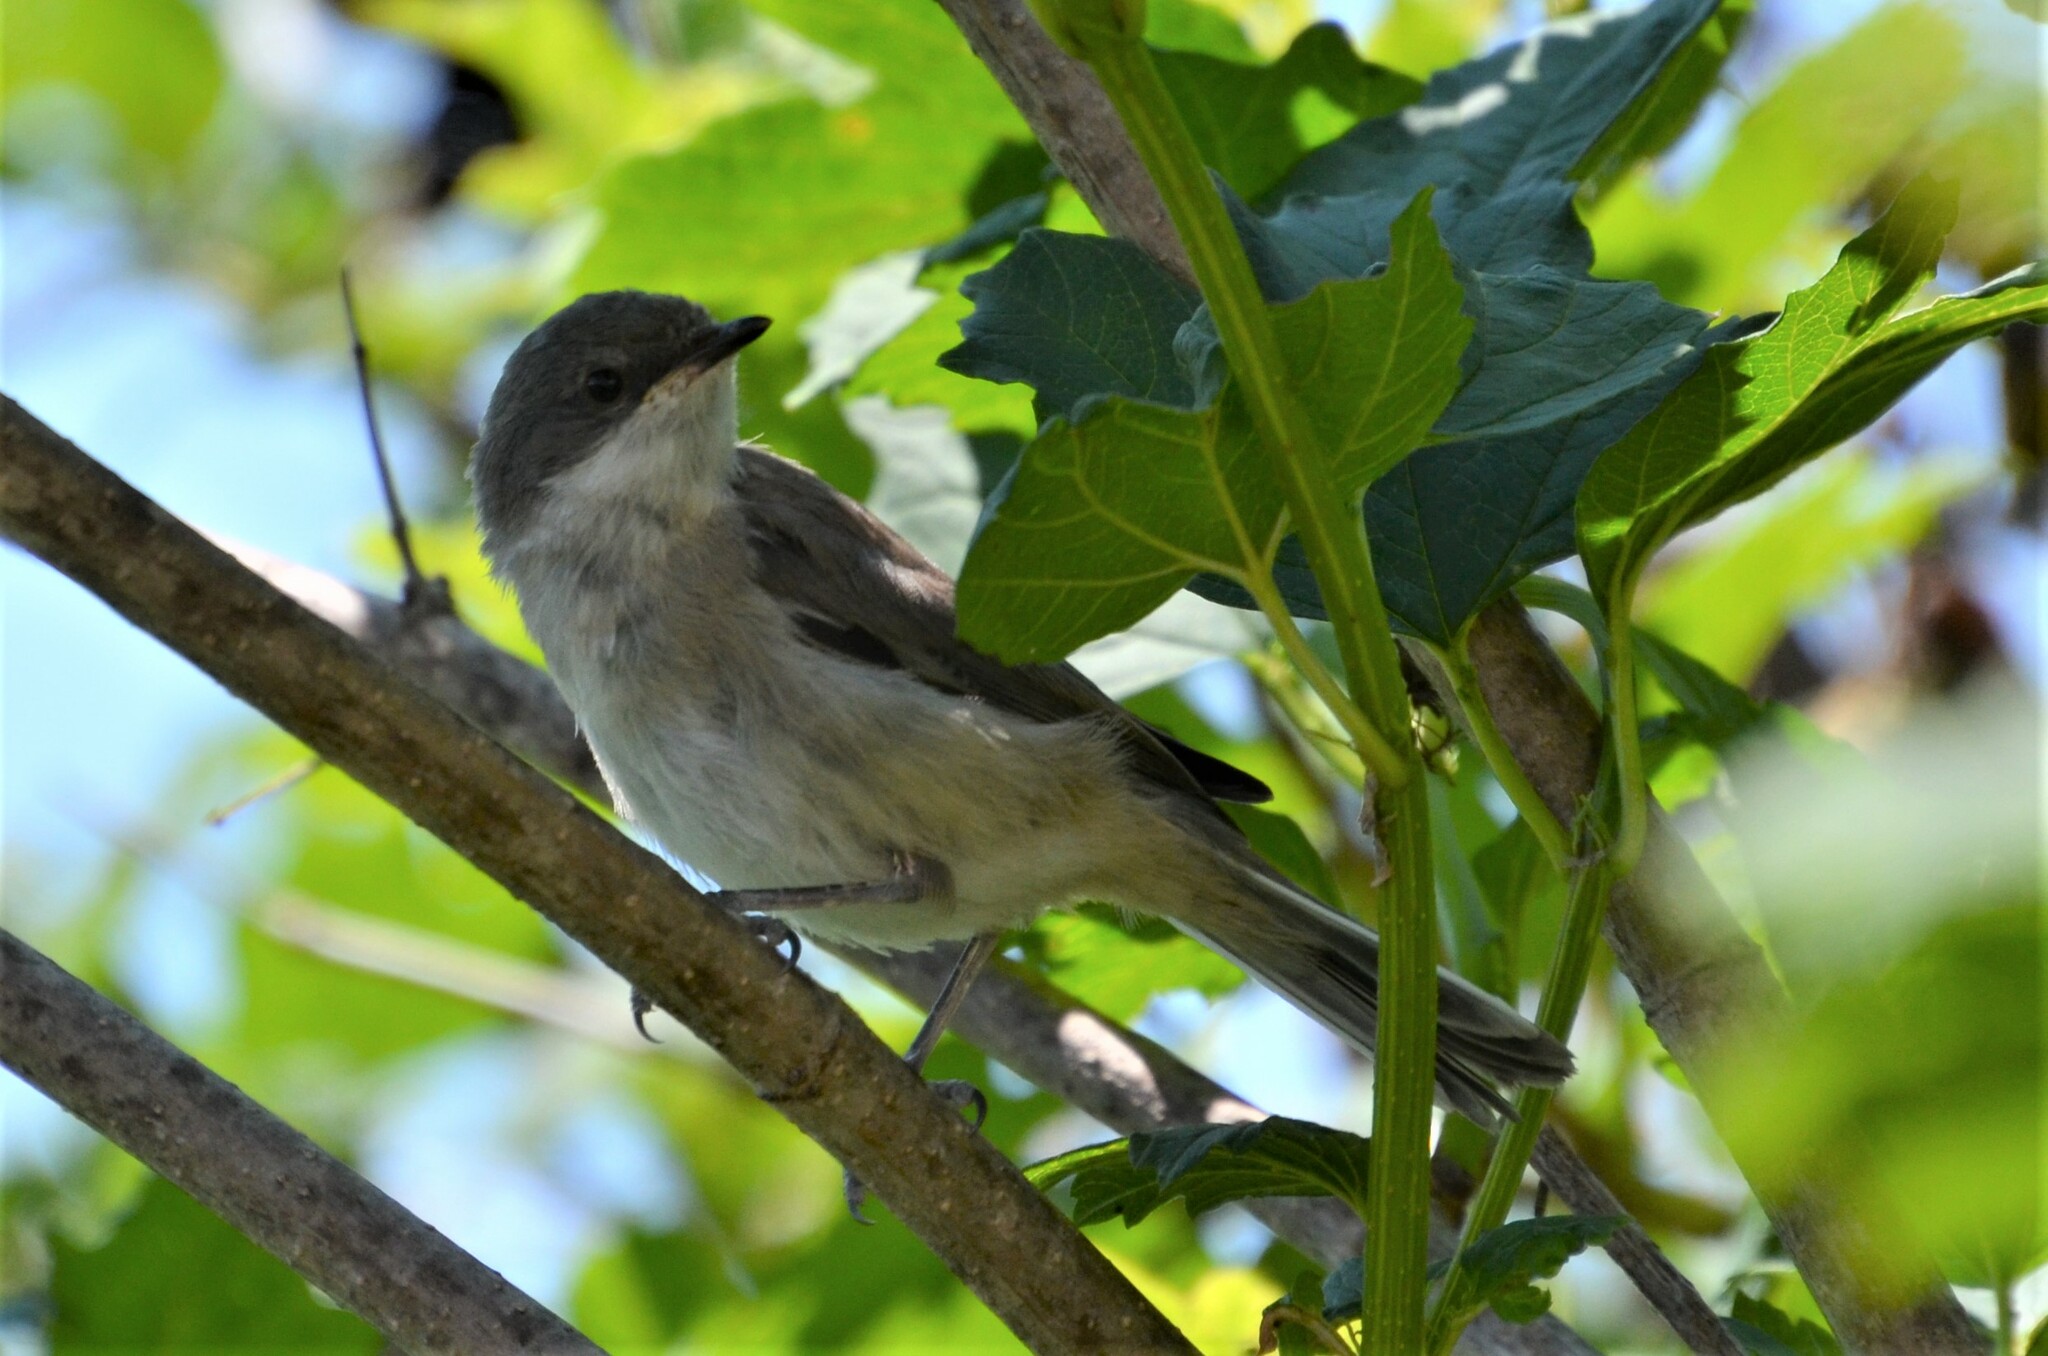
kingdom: Animalia
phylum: Chordata
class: Aves
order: Passeriformes
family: Sylviidae
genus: Sylvia
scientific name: Sylvia curruca
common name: Lesser whitethroat
